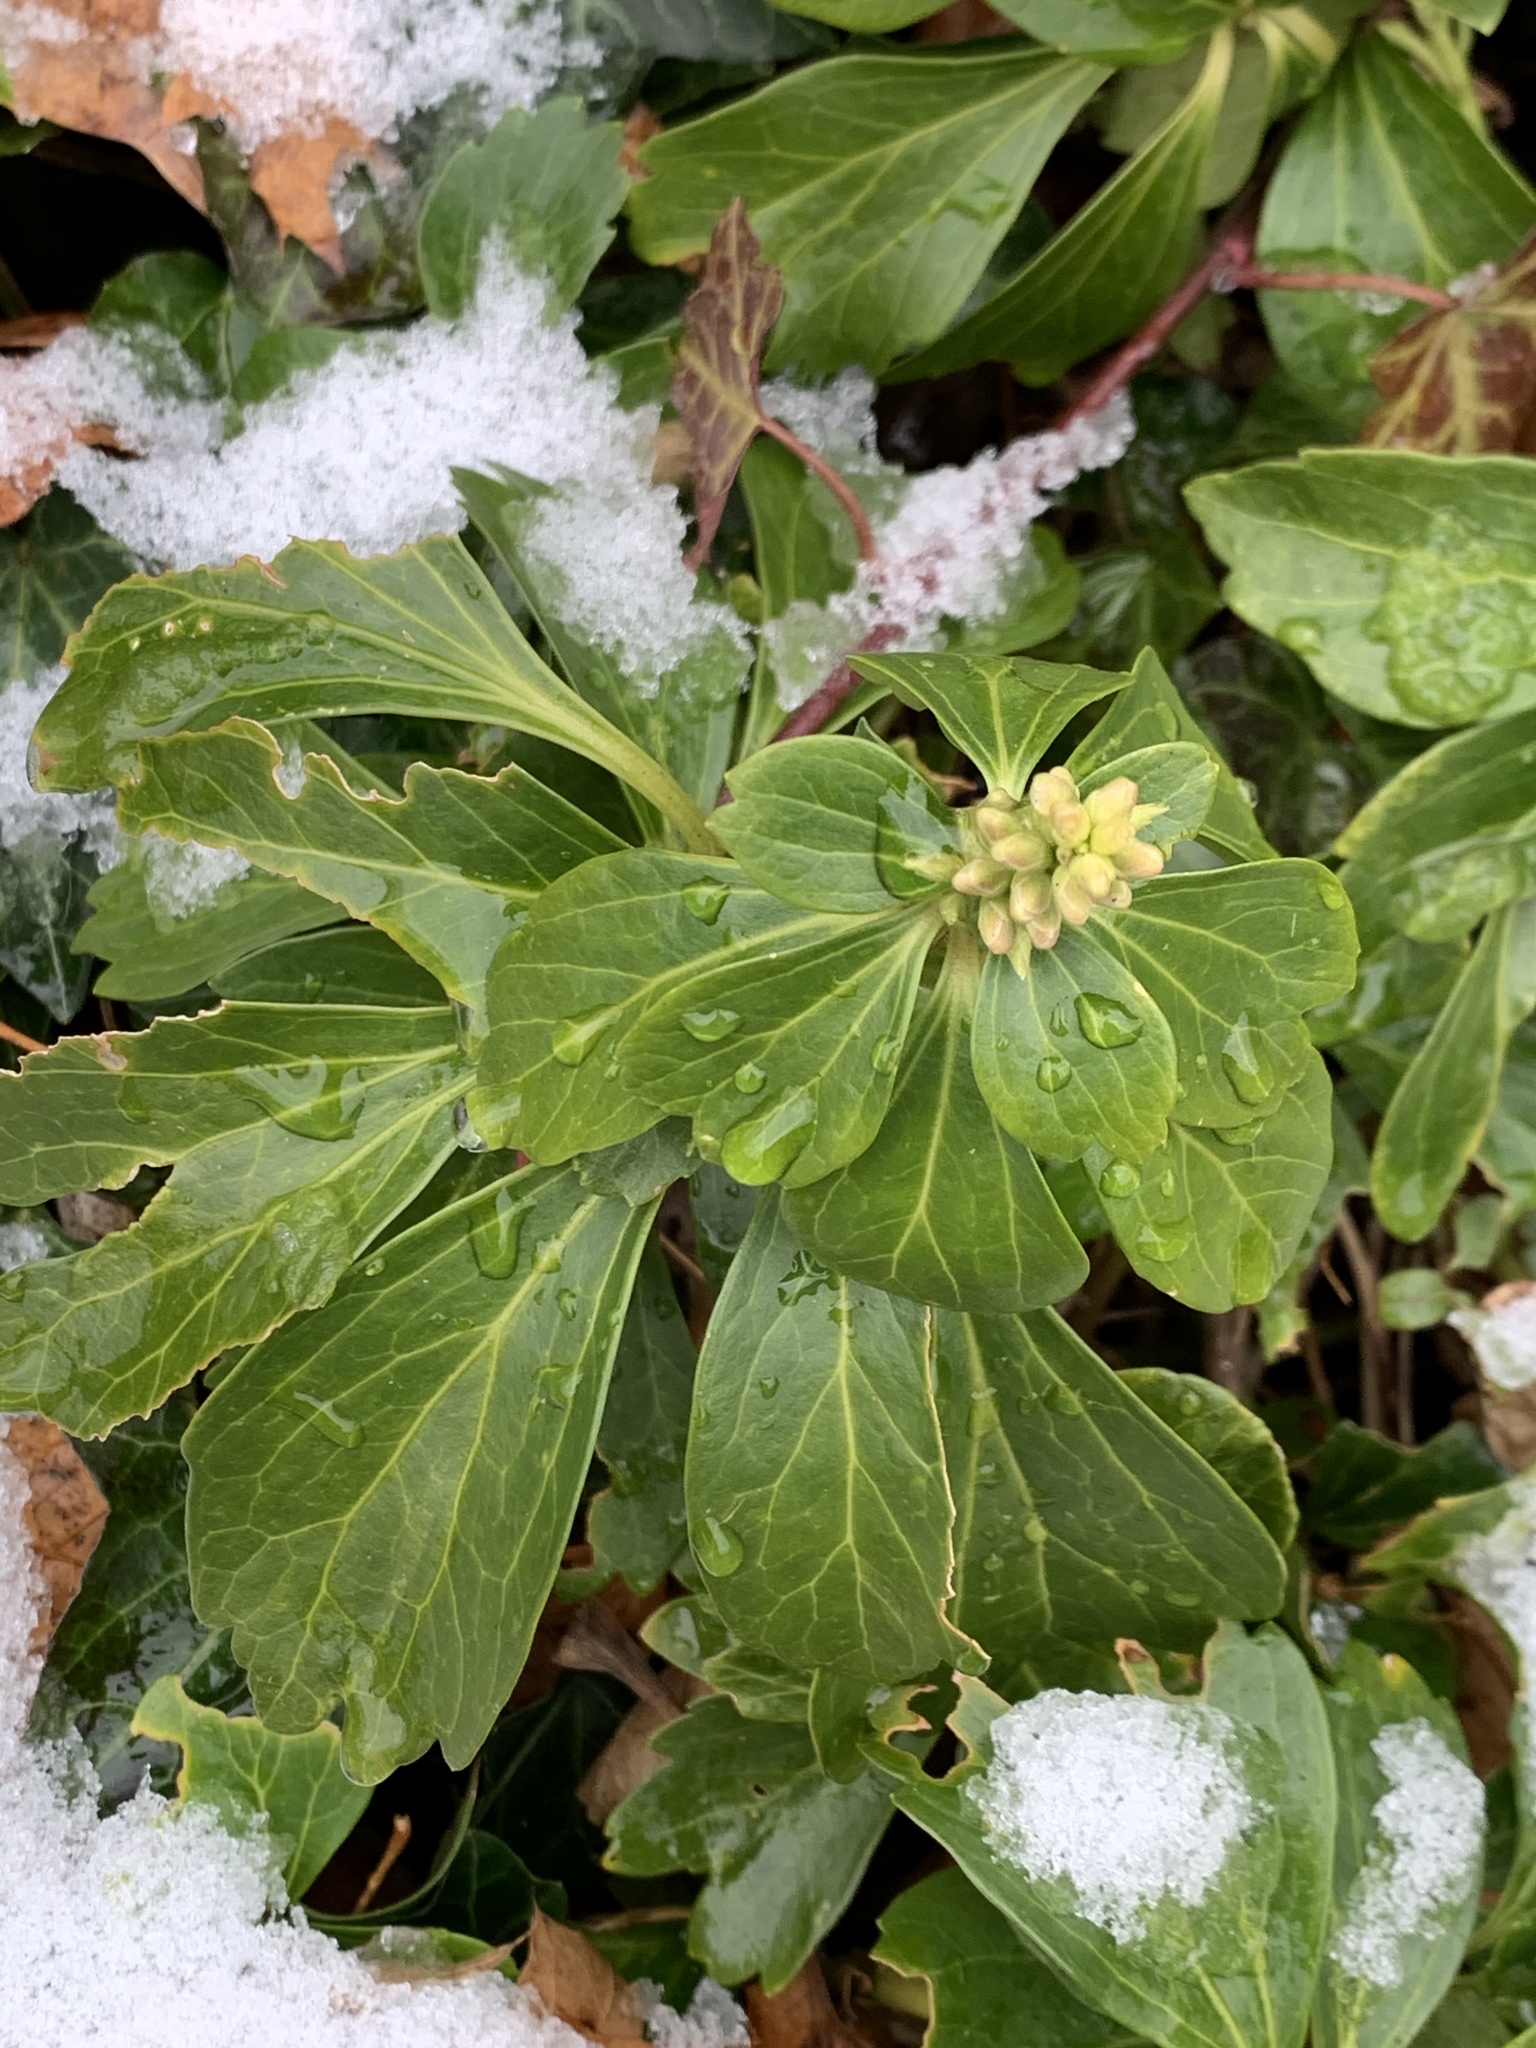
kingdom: Plantae
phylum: Tracheophyta
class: Magnoliopsida
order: Buxales
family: Buxaceae
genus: Pachysandra
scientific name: Pachysandra terminalis
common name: Japanese pachysandra
